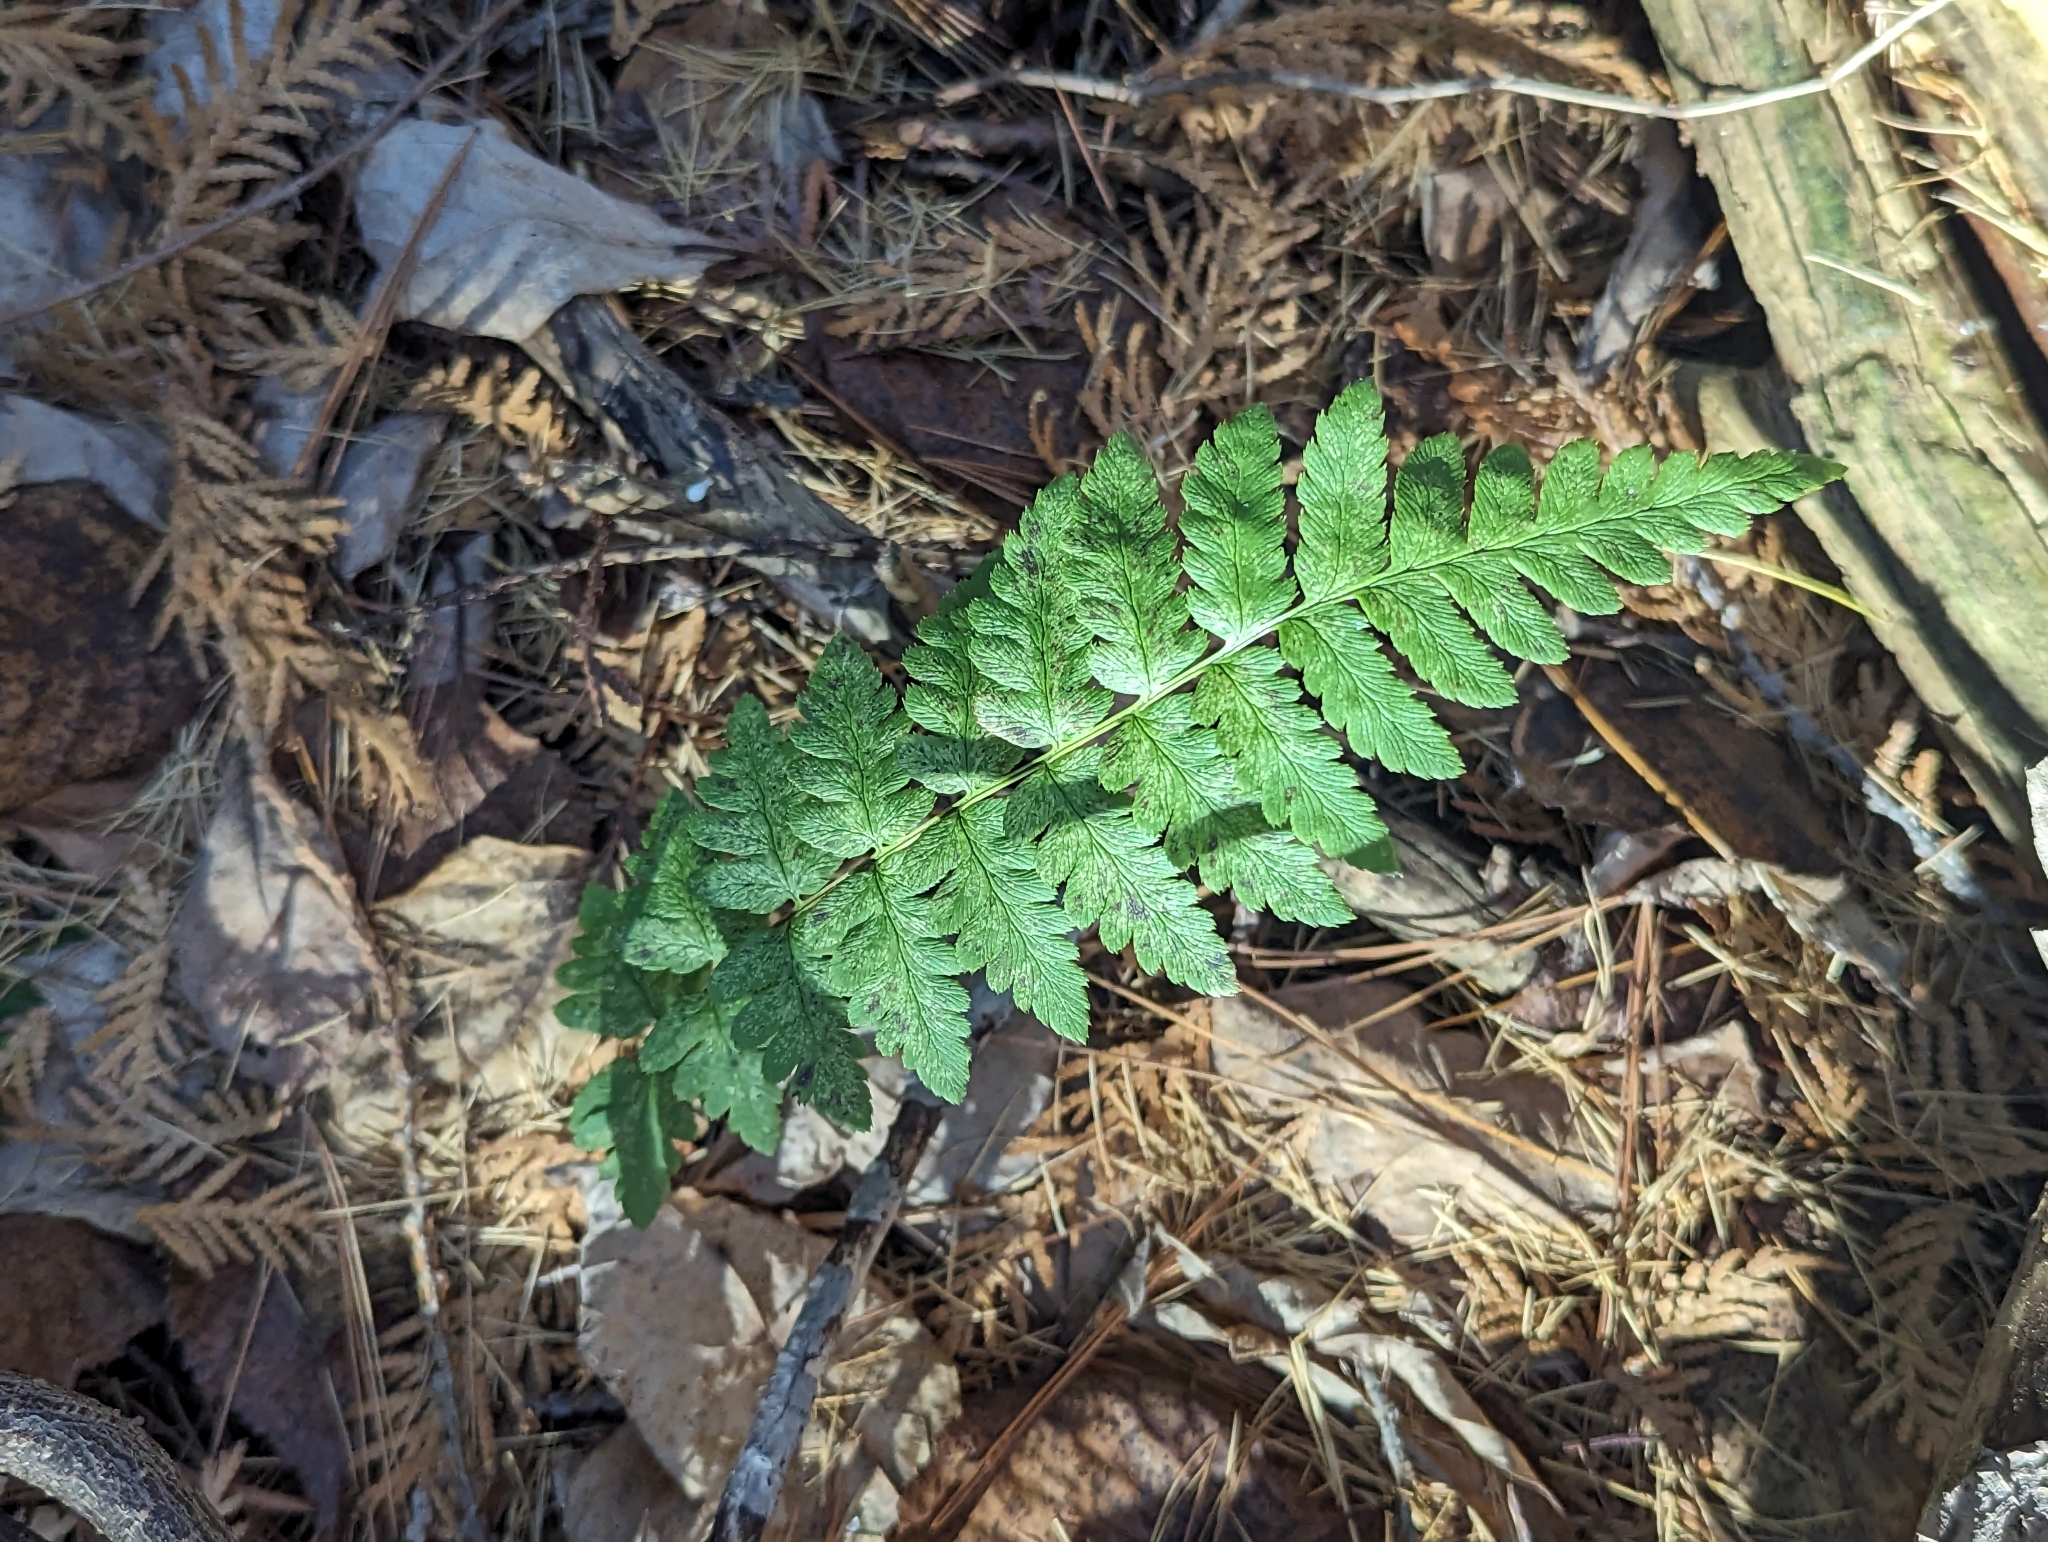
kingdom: Plantae
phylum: Tracheophyta
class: Polypodiopsida
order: Polypodiales
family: Dryopteridaceae
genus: Dryopteris
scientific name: Dryopteris cristata
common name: Crested wood fern
